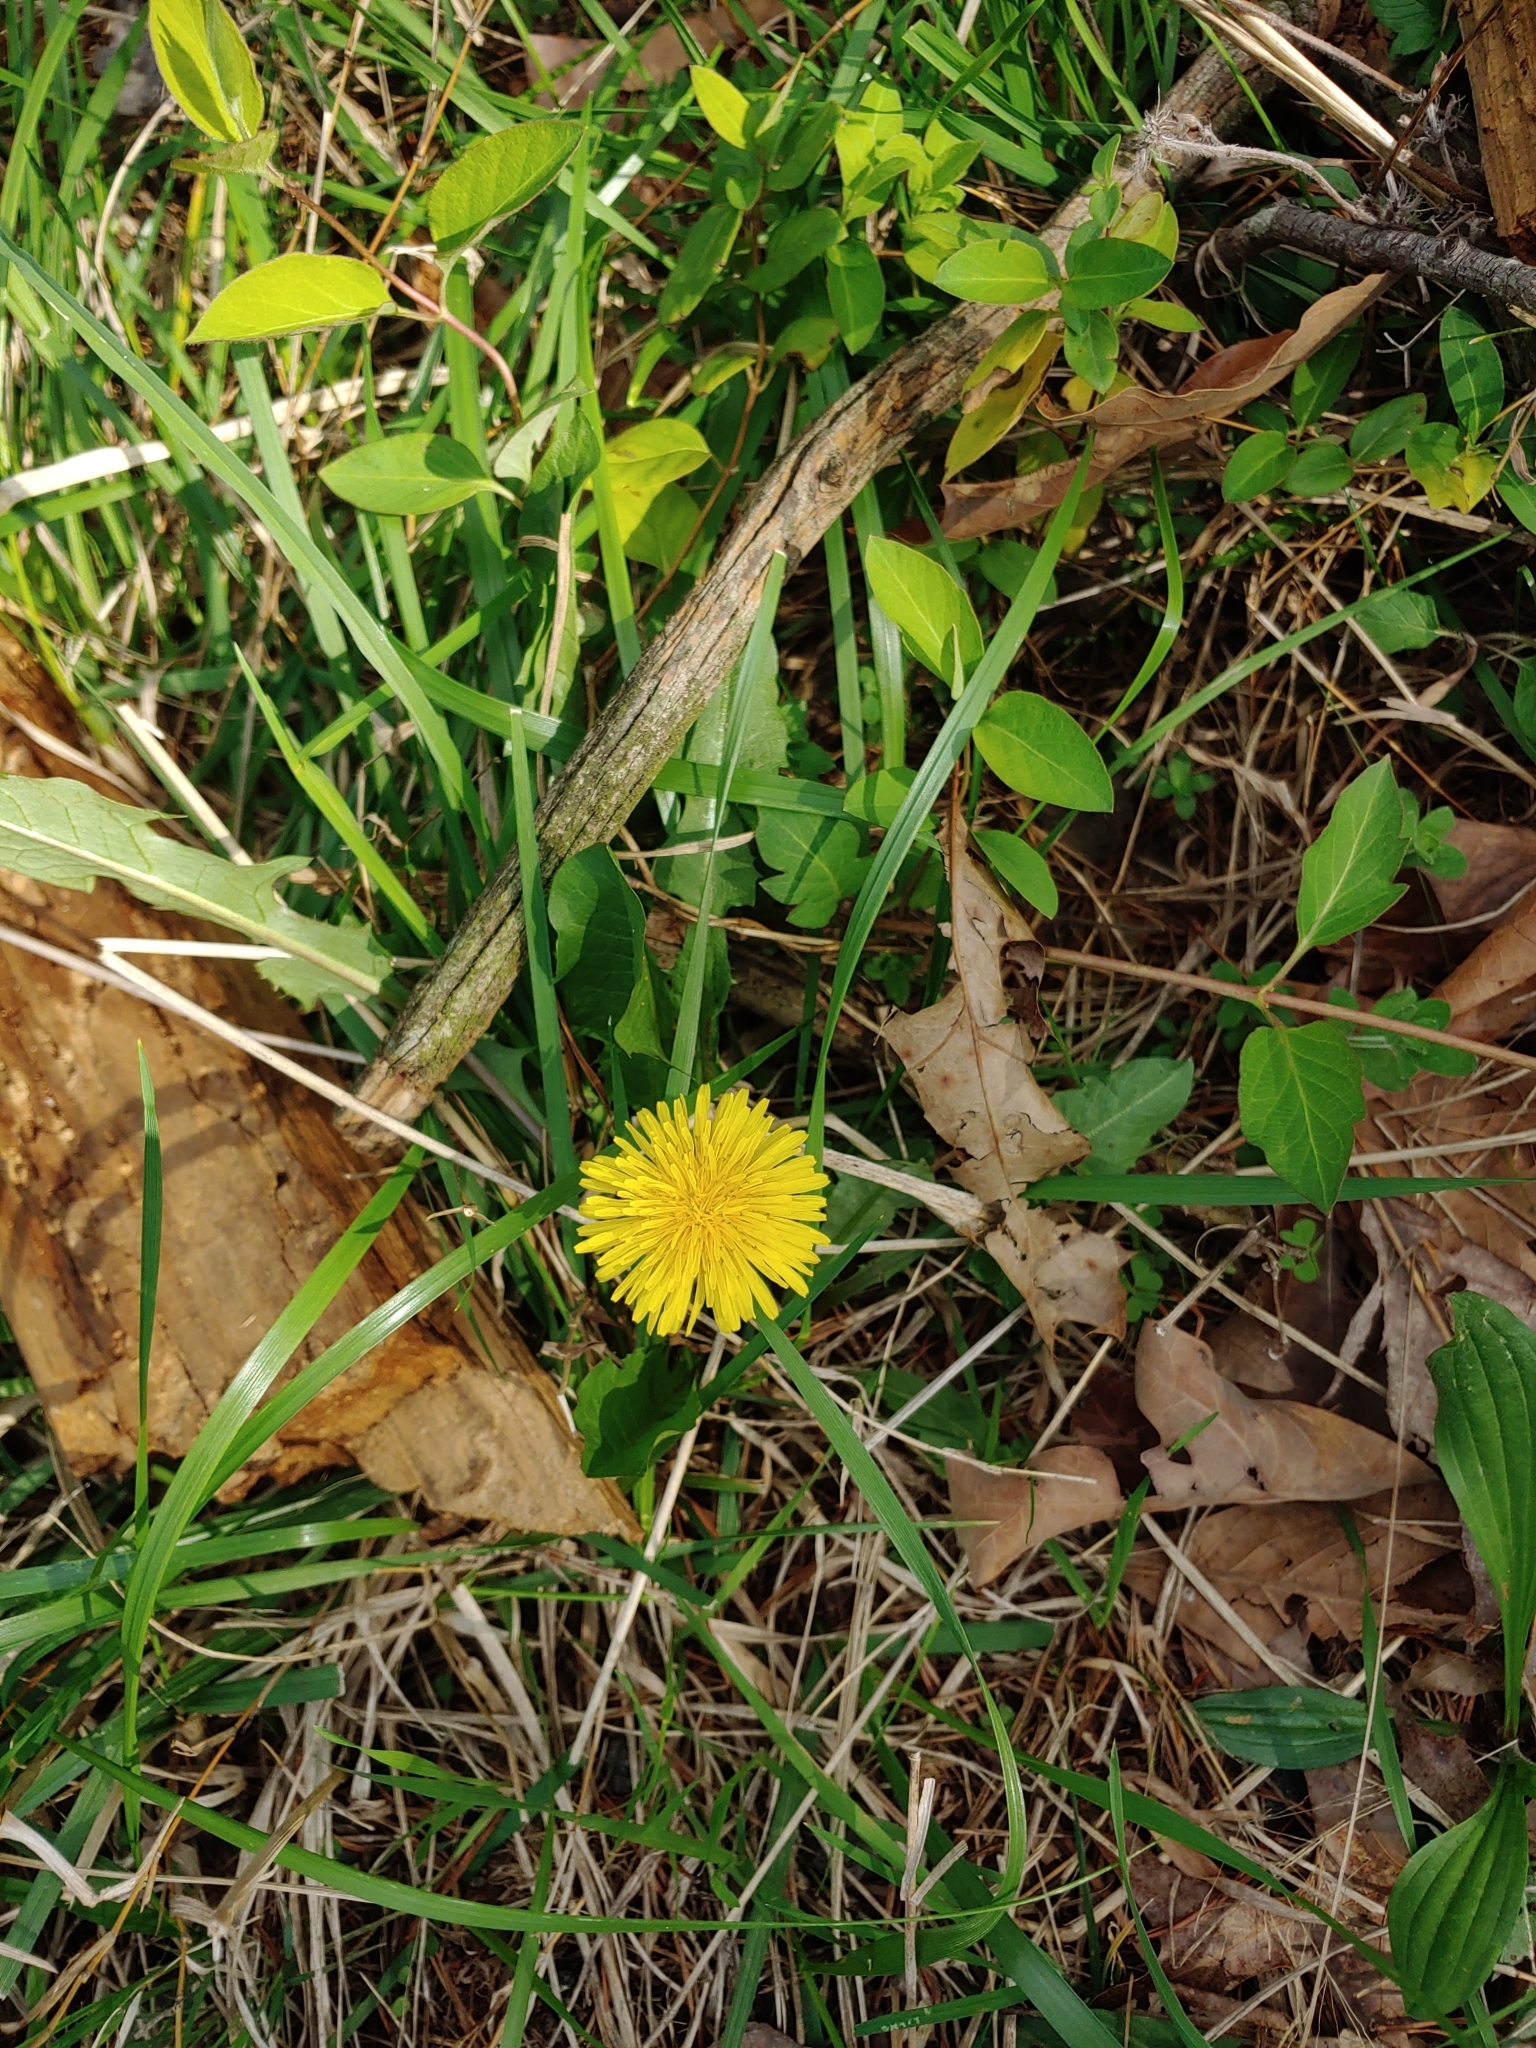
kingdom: Plantae
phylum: Tracheophyta
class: Magnoliopsida
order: Asterales
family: Asteraceae
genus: Taraxacum
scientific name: Taraxacum officinale
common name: Common dandelion
